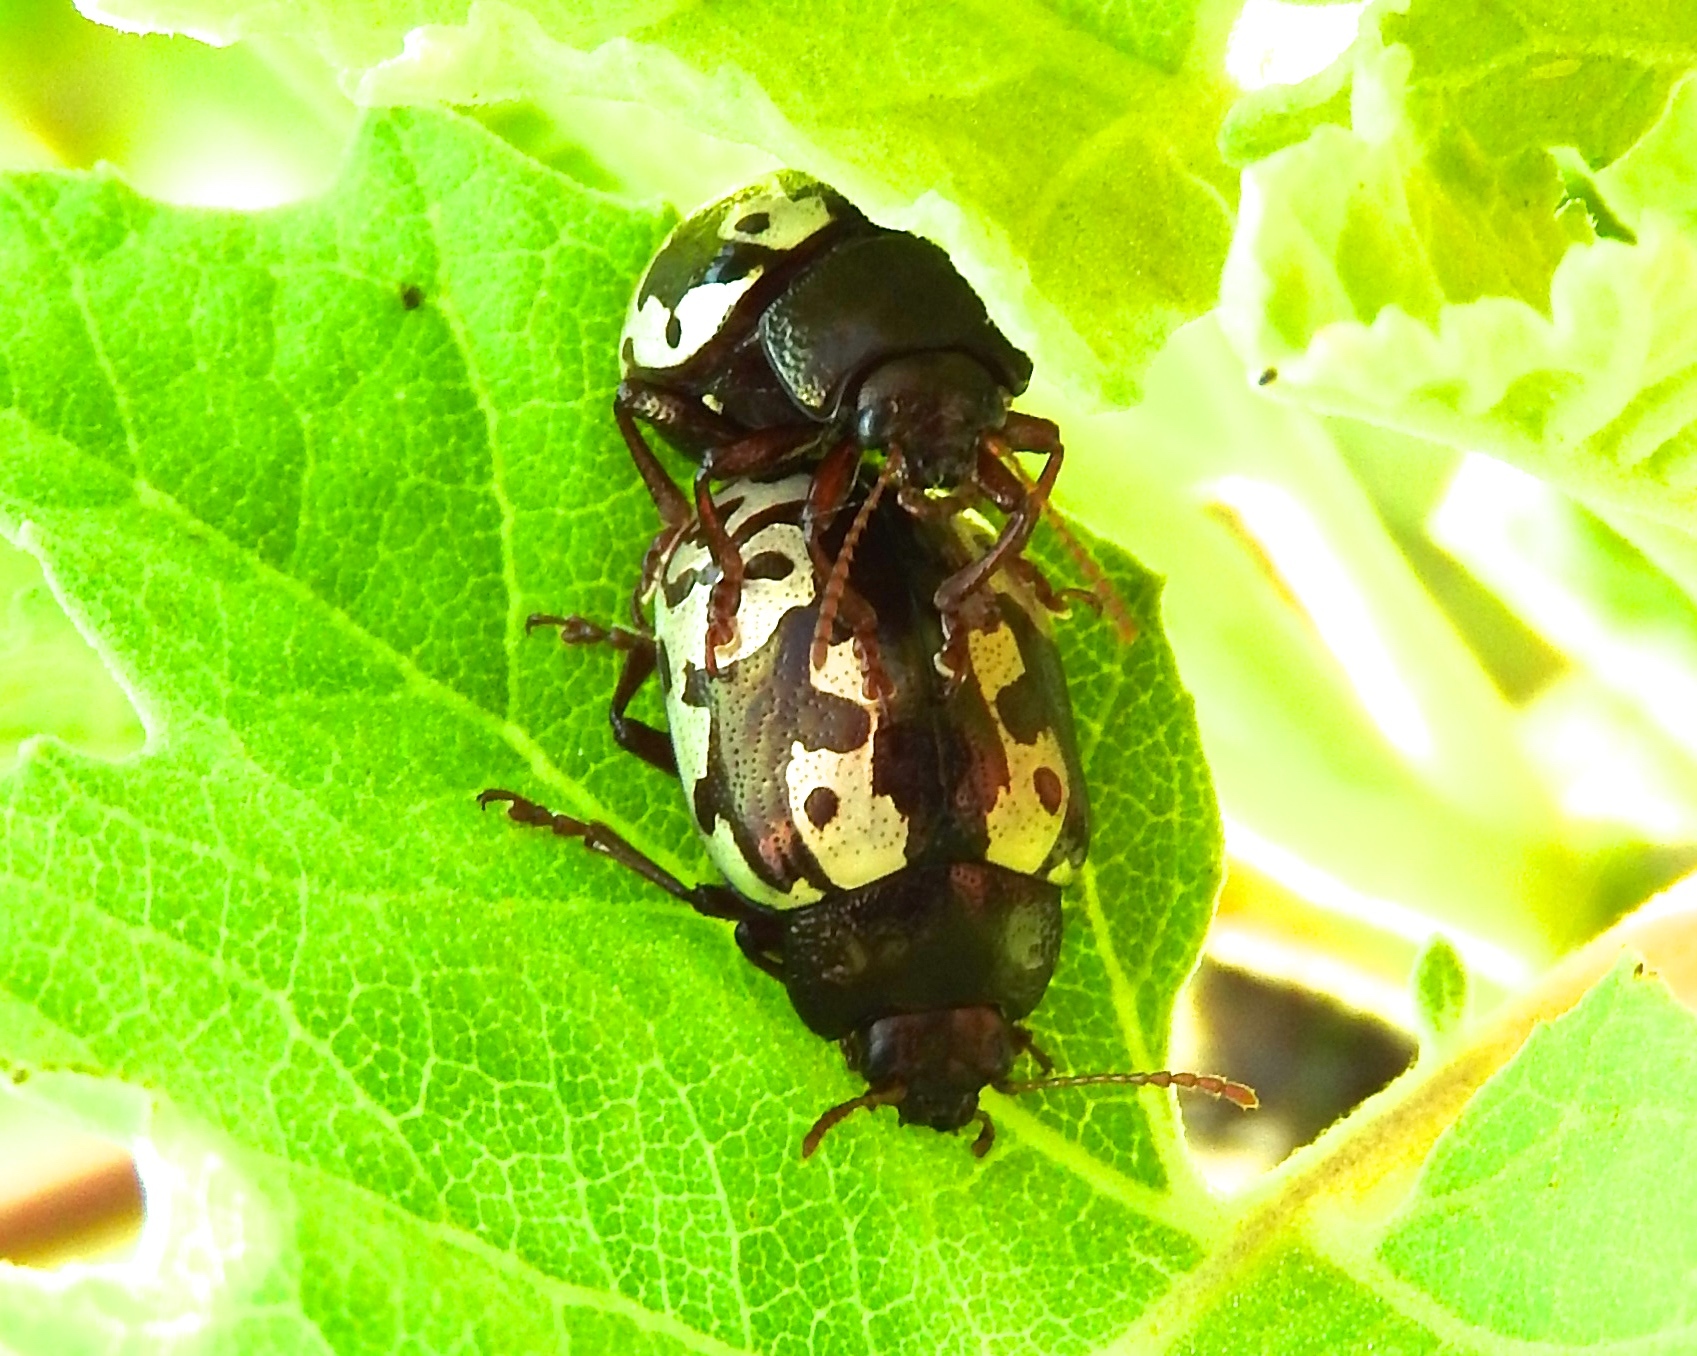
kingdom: Animalia
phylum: Arthropoda
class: Insecta
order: Coleoptera
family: Chrysomelidae
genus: Calligrapha
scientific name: Calligrapha intermedia
